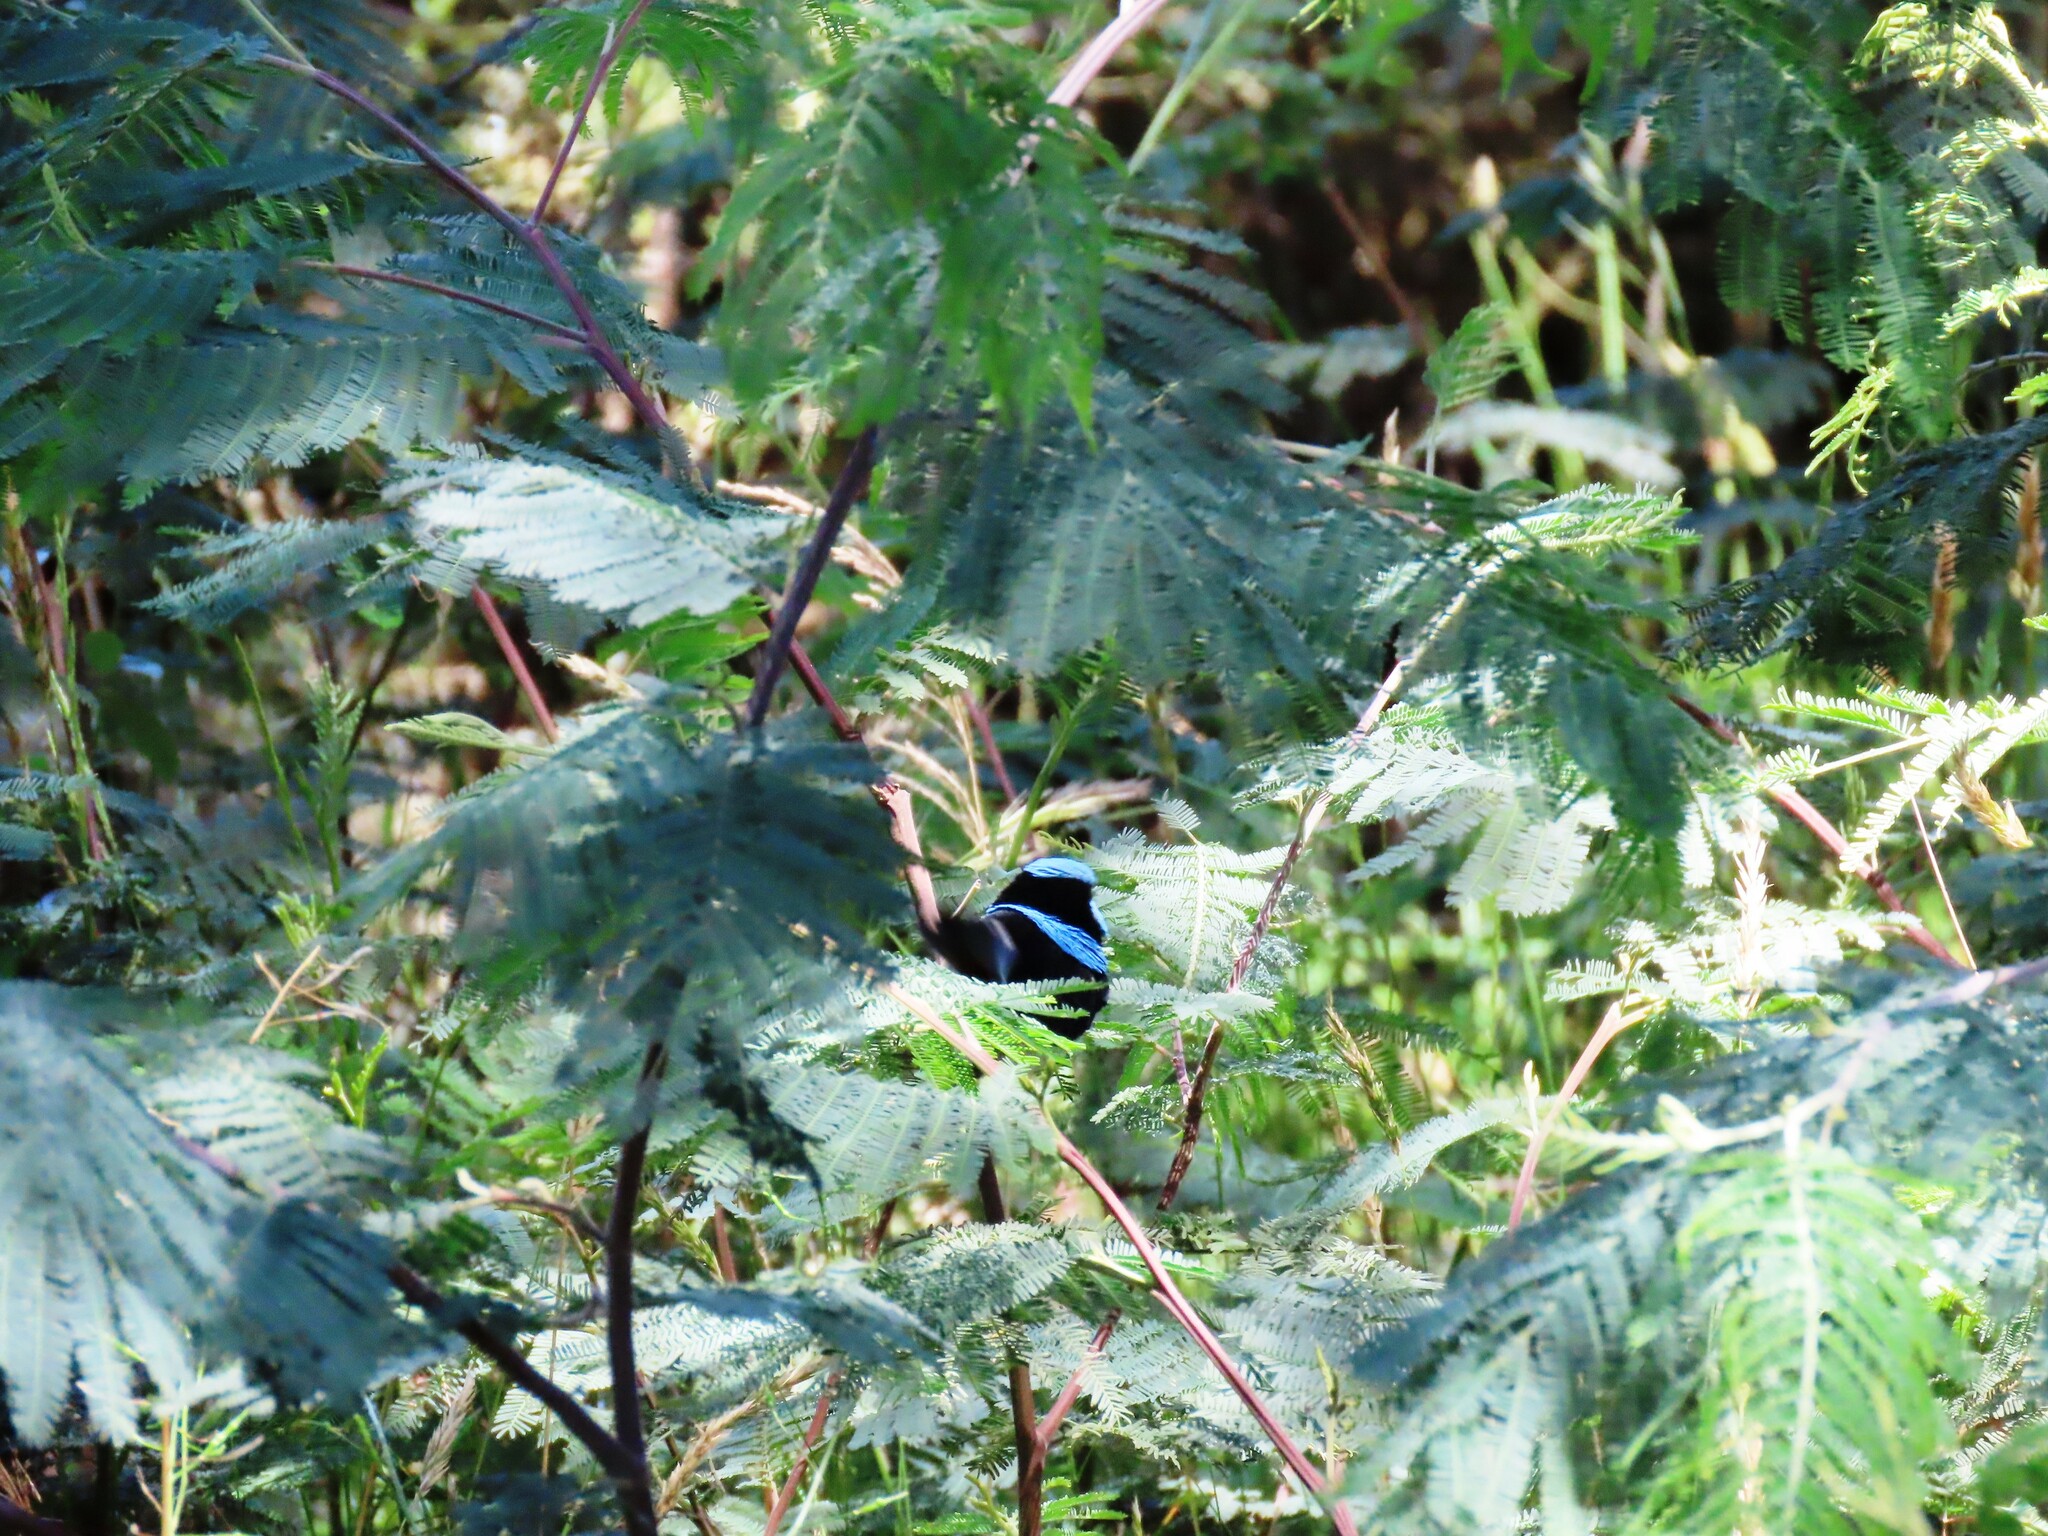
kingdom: Animalia
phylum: Chordata
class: Aves
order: Passeriformes
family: Maluridae
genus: Malurus
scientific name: Malurus cyaneus
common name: Superb fairywren
